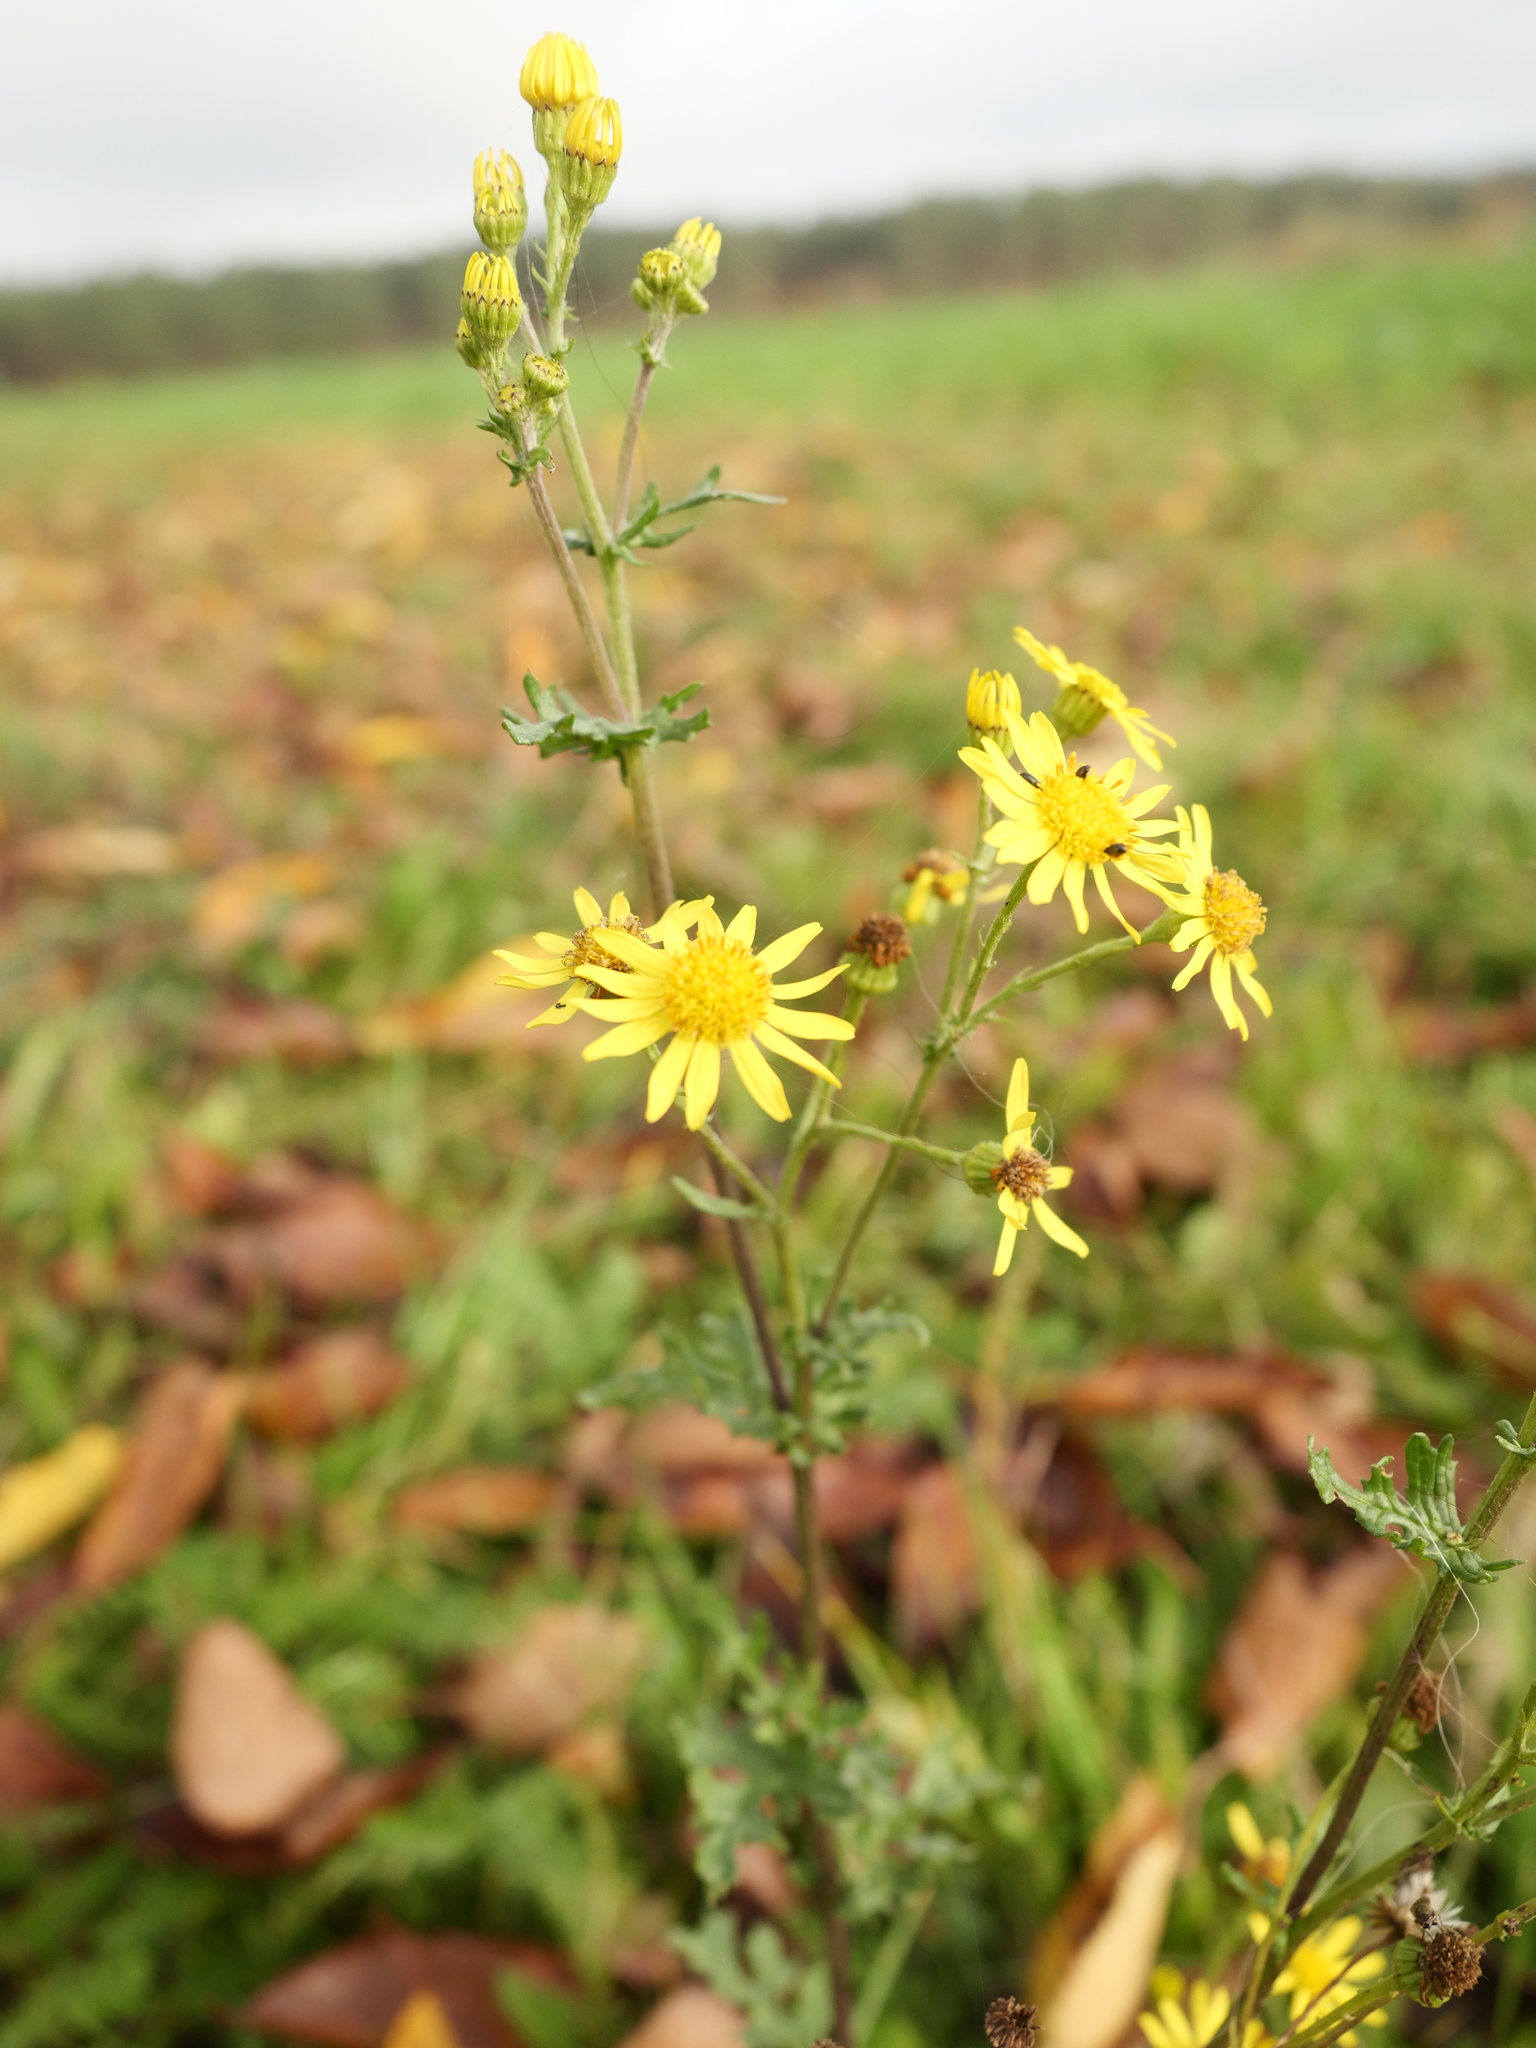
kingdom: Plantae
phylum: Tracheophyta
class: Magnoliopsida
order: Asterales
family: Asteraceae
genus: Jacobaea
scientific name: Jacobaea vulgaris
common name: Stinking willie
